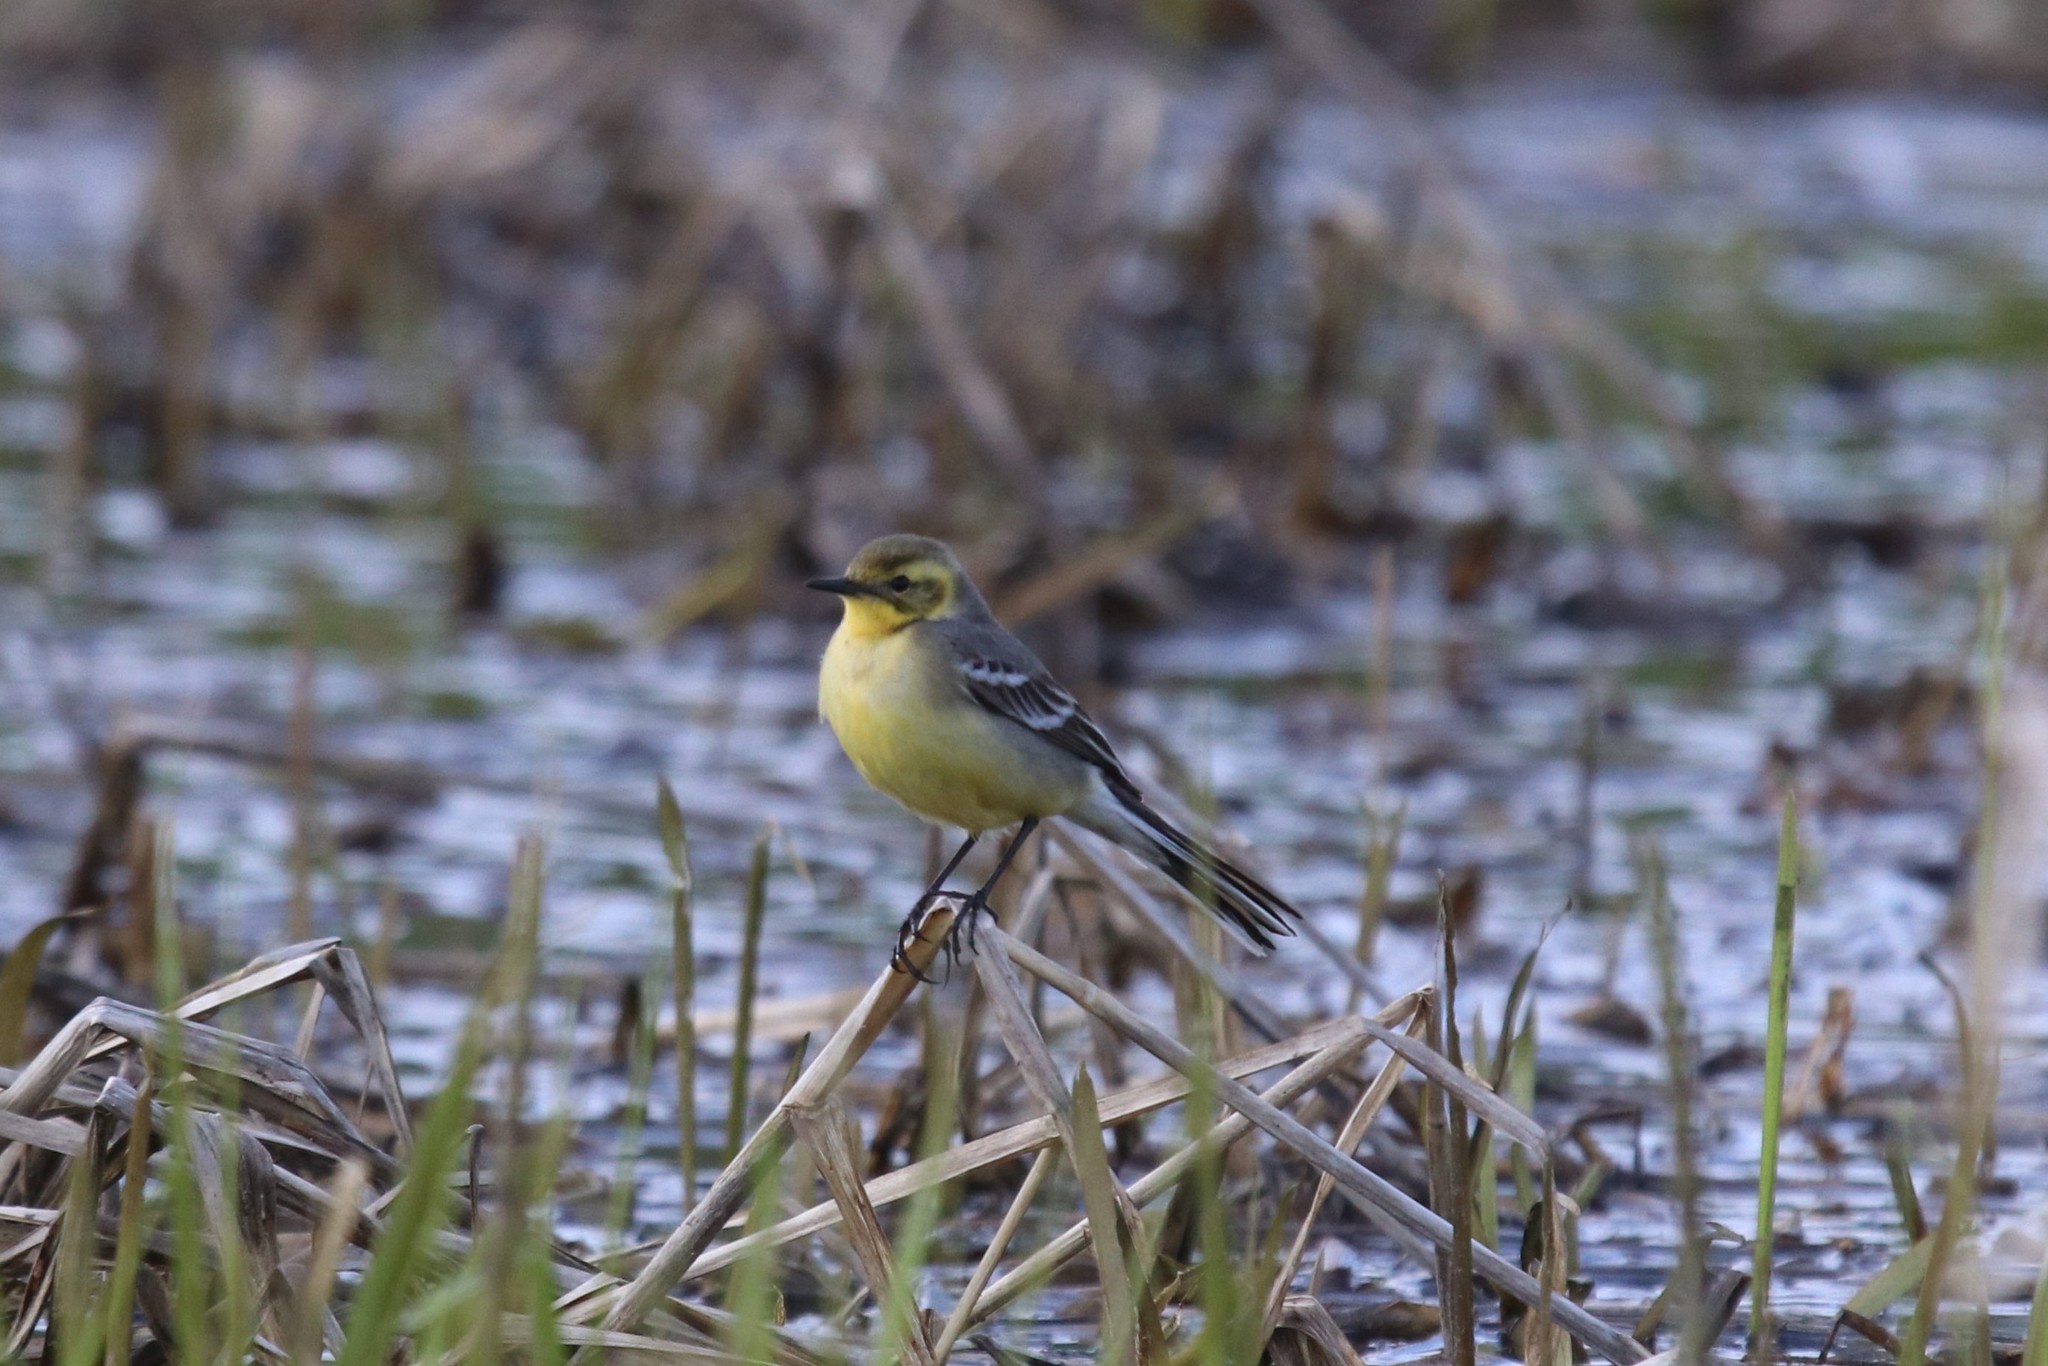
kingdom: Animalia
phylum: Chordata
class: Aves
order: Passeriformes
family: Motacillidae
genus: Motacilla
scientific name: Motacilla citreola
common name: Citrine wagtail
